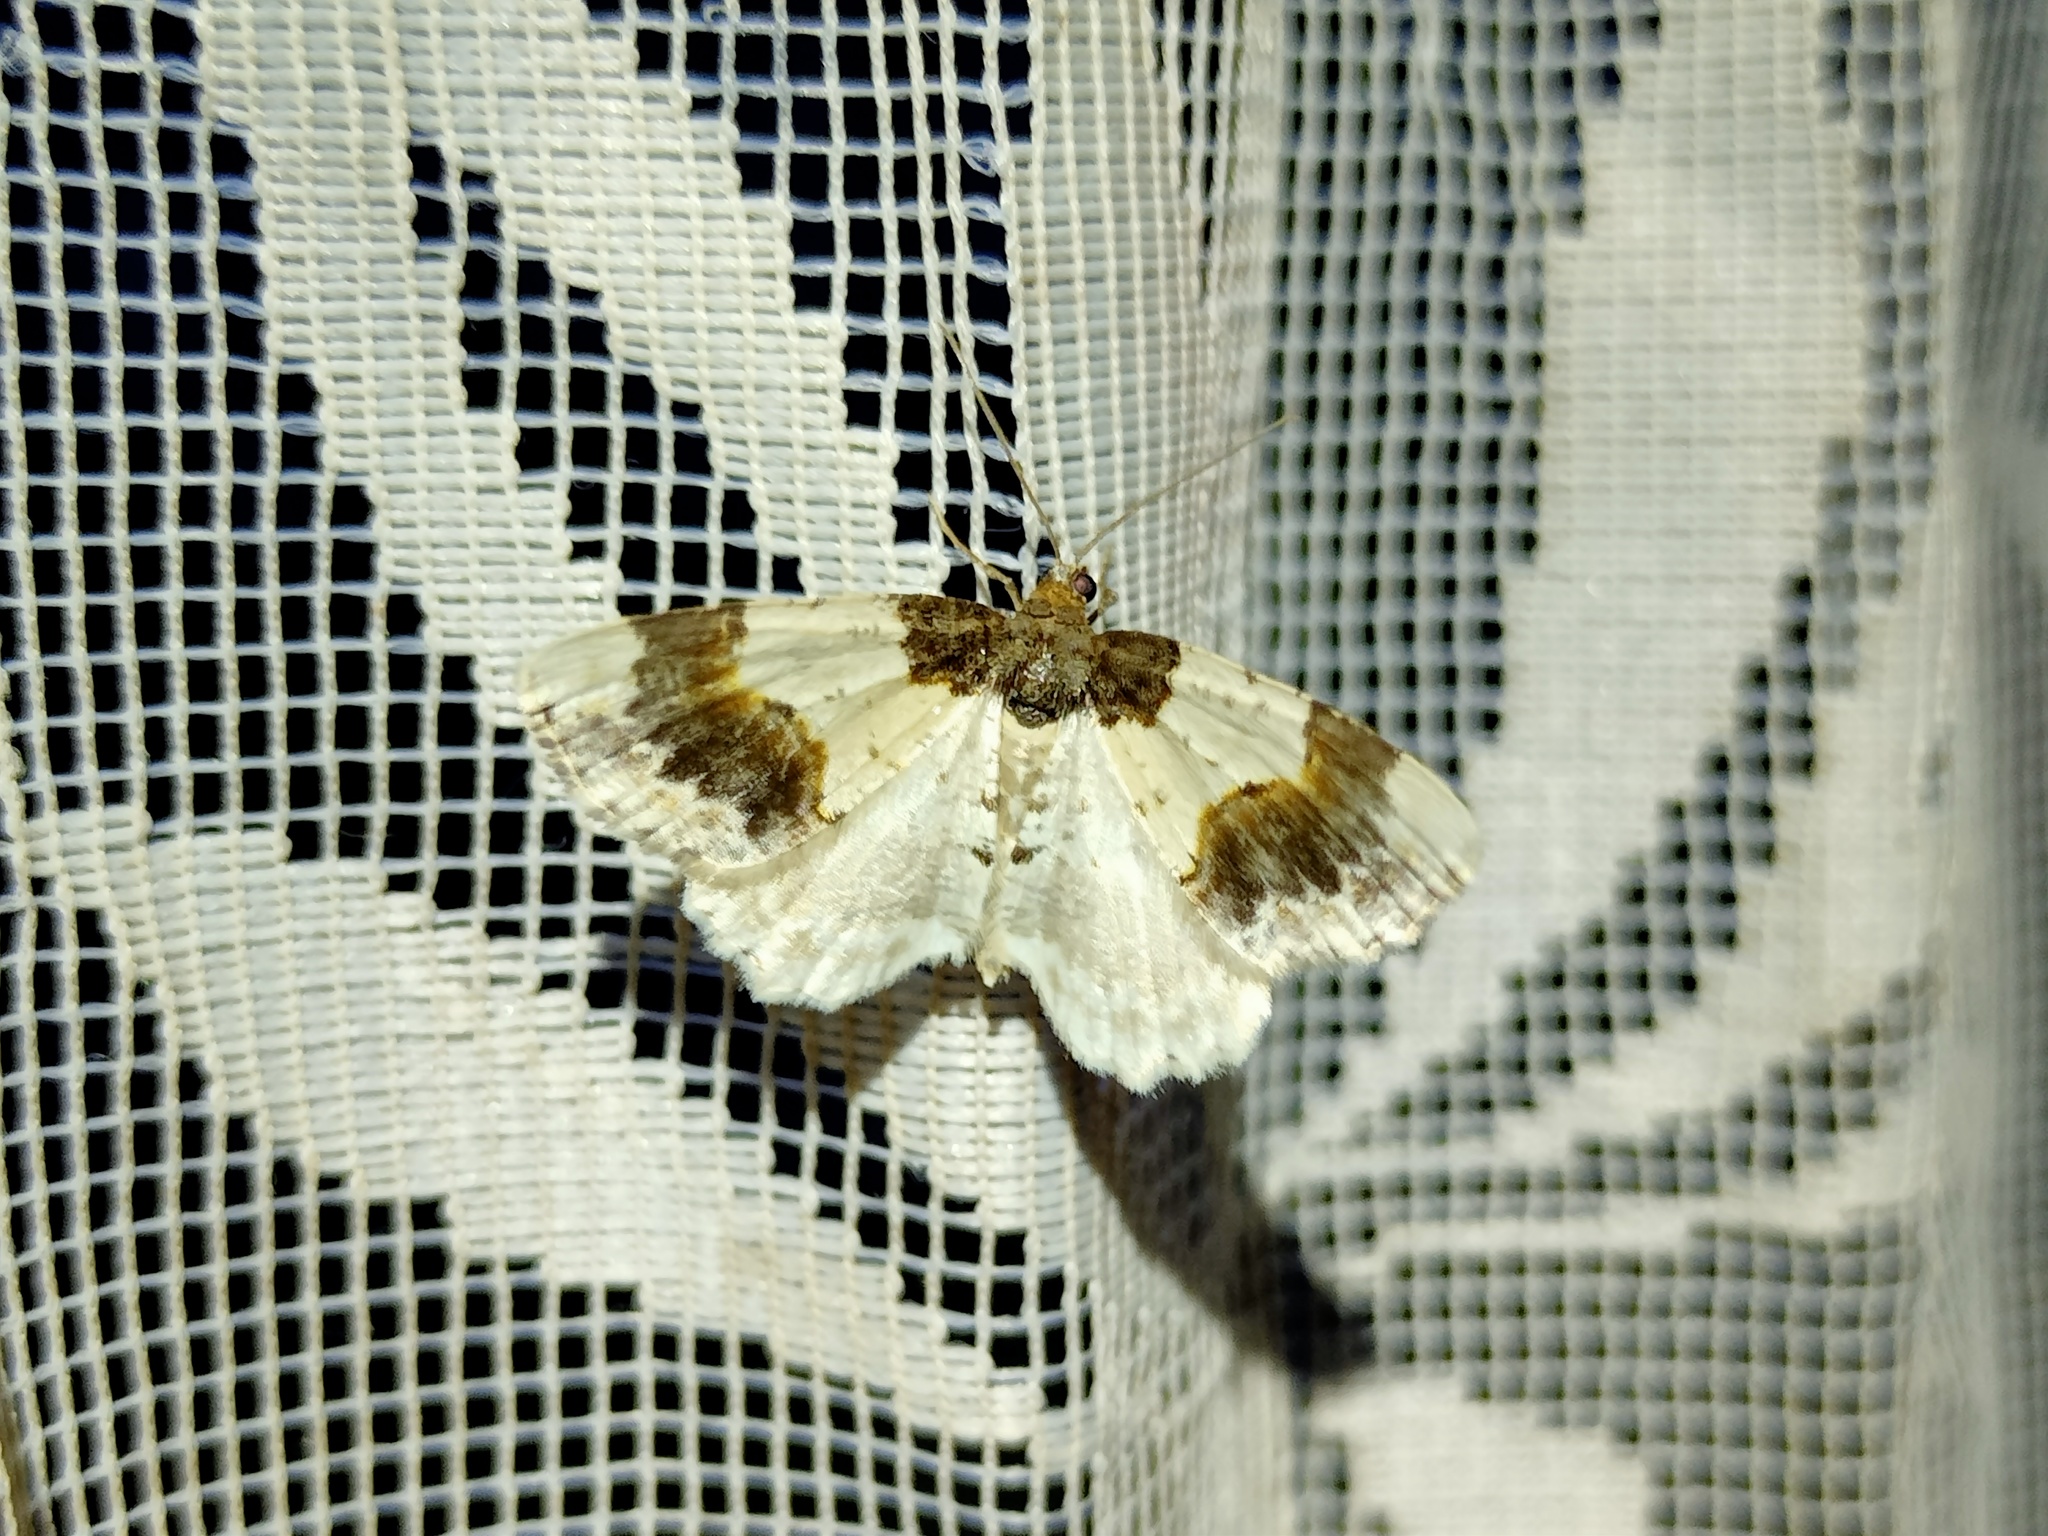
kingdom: Animalia
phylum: Arthropoda
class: Insecta
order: Lepidoptera
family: Geometridae
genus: Ligdia
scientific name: Ligdia adustata
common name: Scorched carpet
